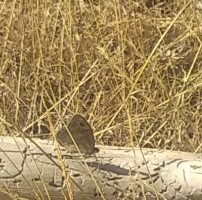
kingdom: Animalia
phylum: Arthropoda
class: Insecta
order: Lepidoptera
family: Nymphalidae
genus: Hipparchia
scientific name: Hipparchia statilinus
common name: Tree grayling
